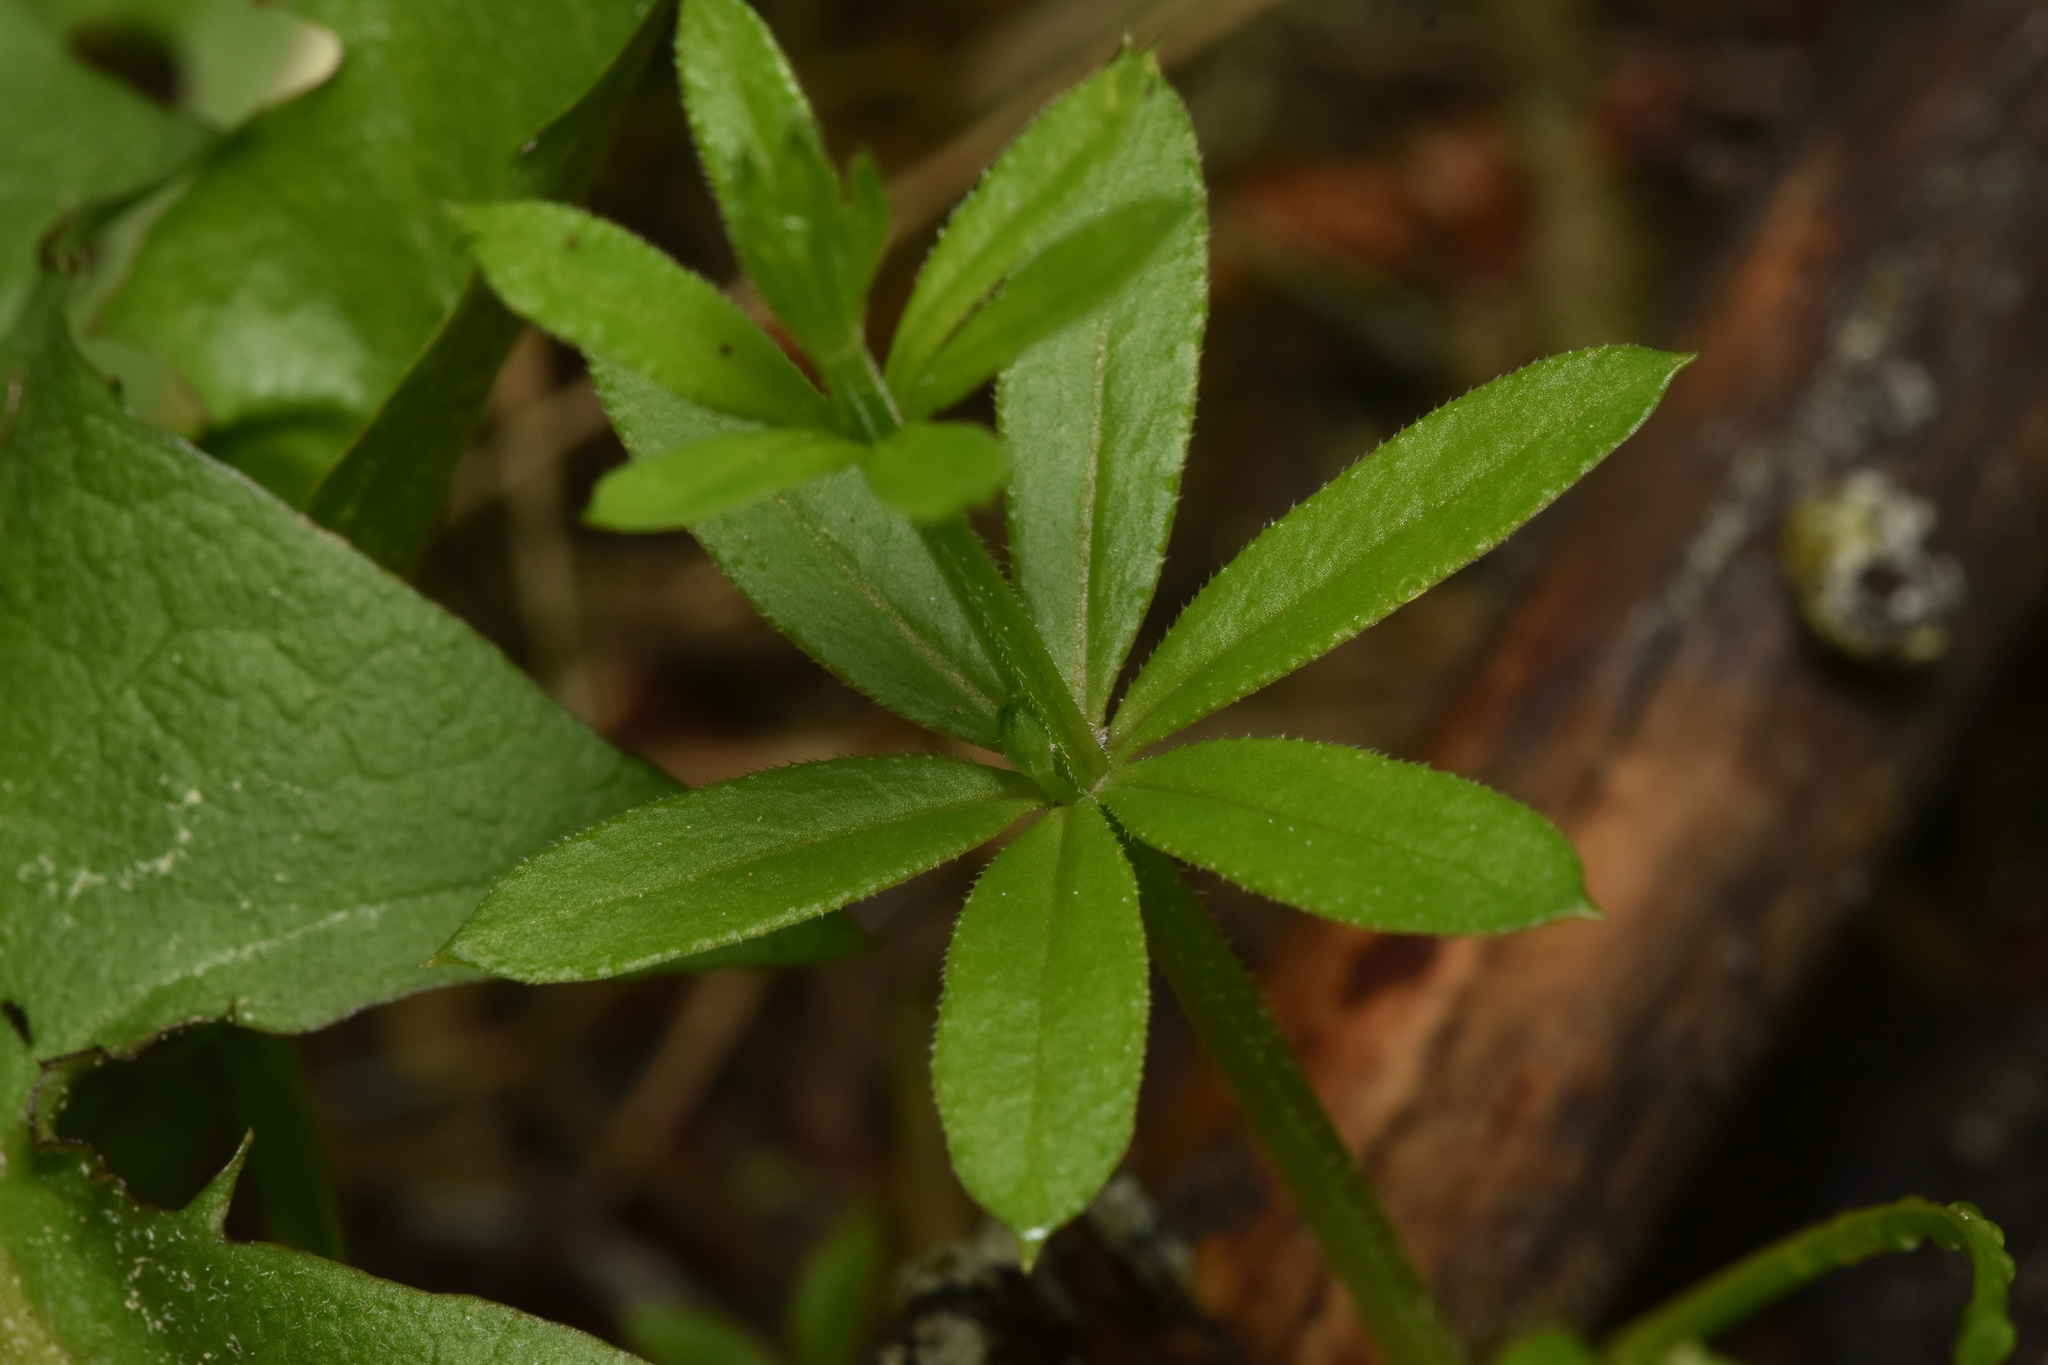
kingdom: Plantae
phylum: Tracheophyta
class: Magnoliopsida
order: Gentianales
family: Rubiaceae
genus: Galium
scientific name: Galium triflorum
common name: Fragrant bedstraw
